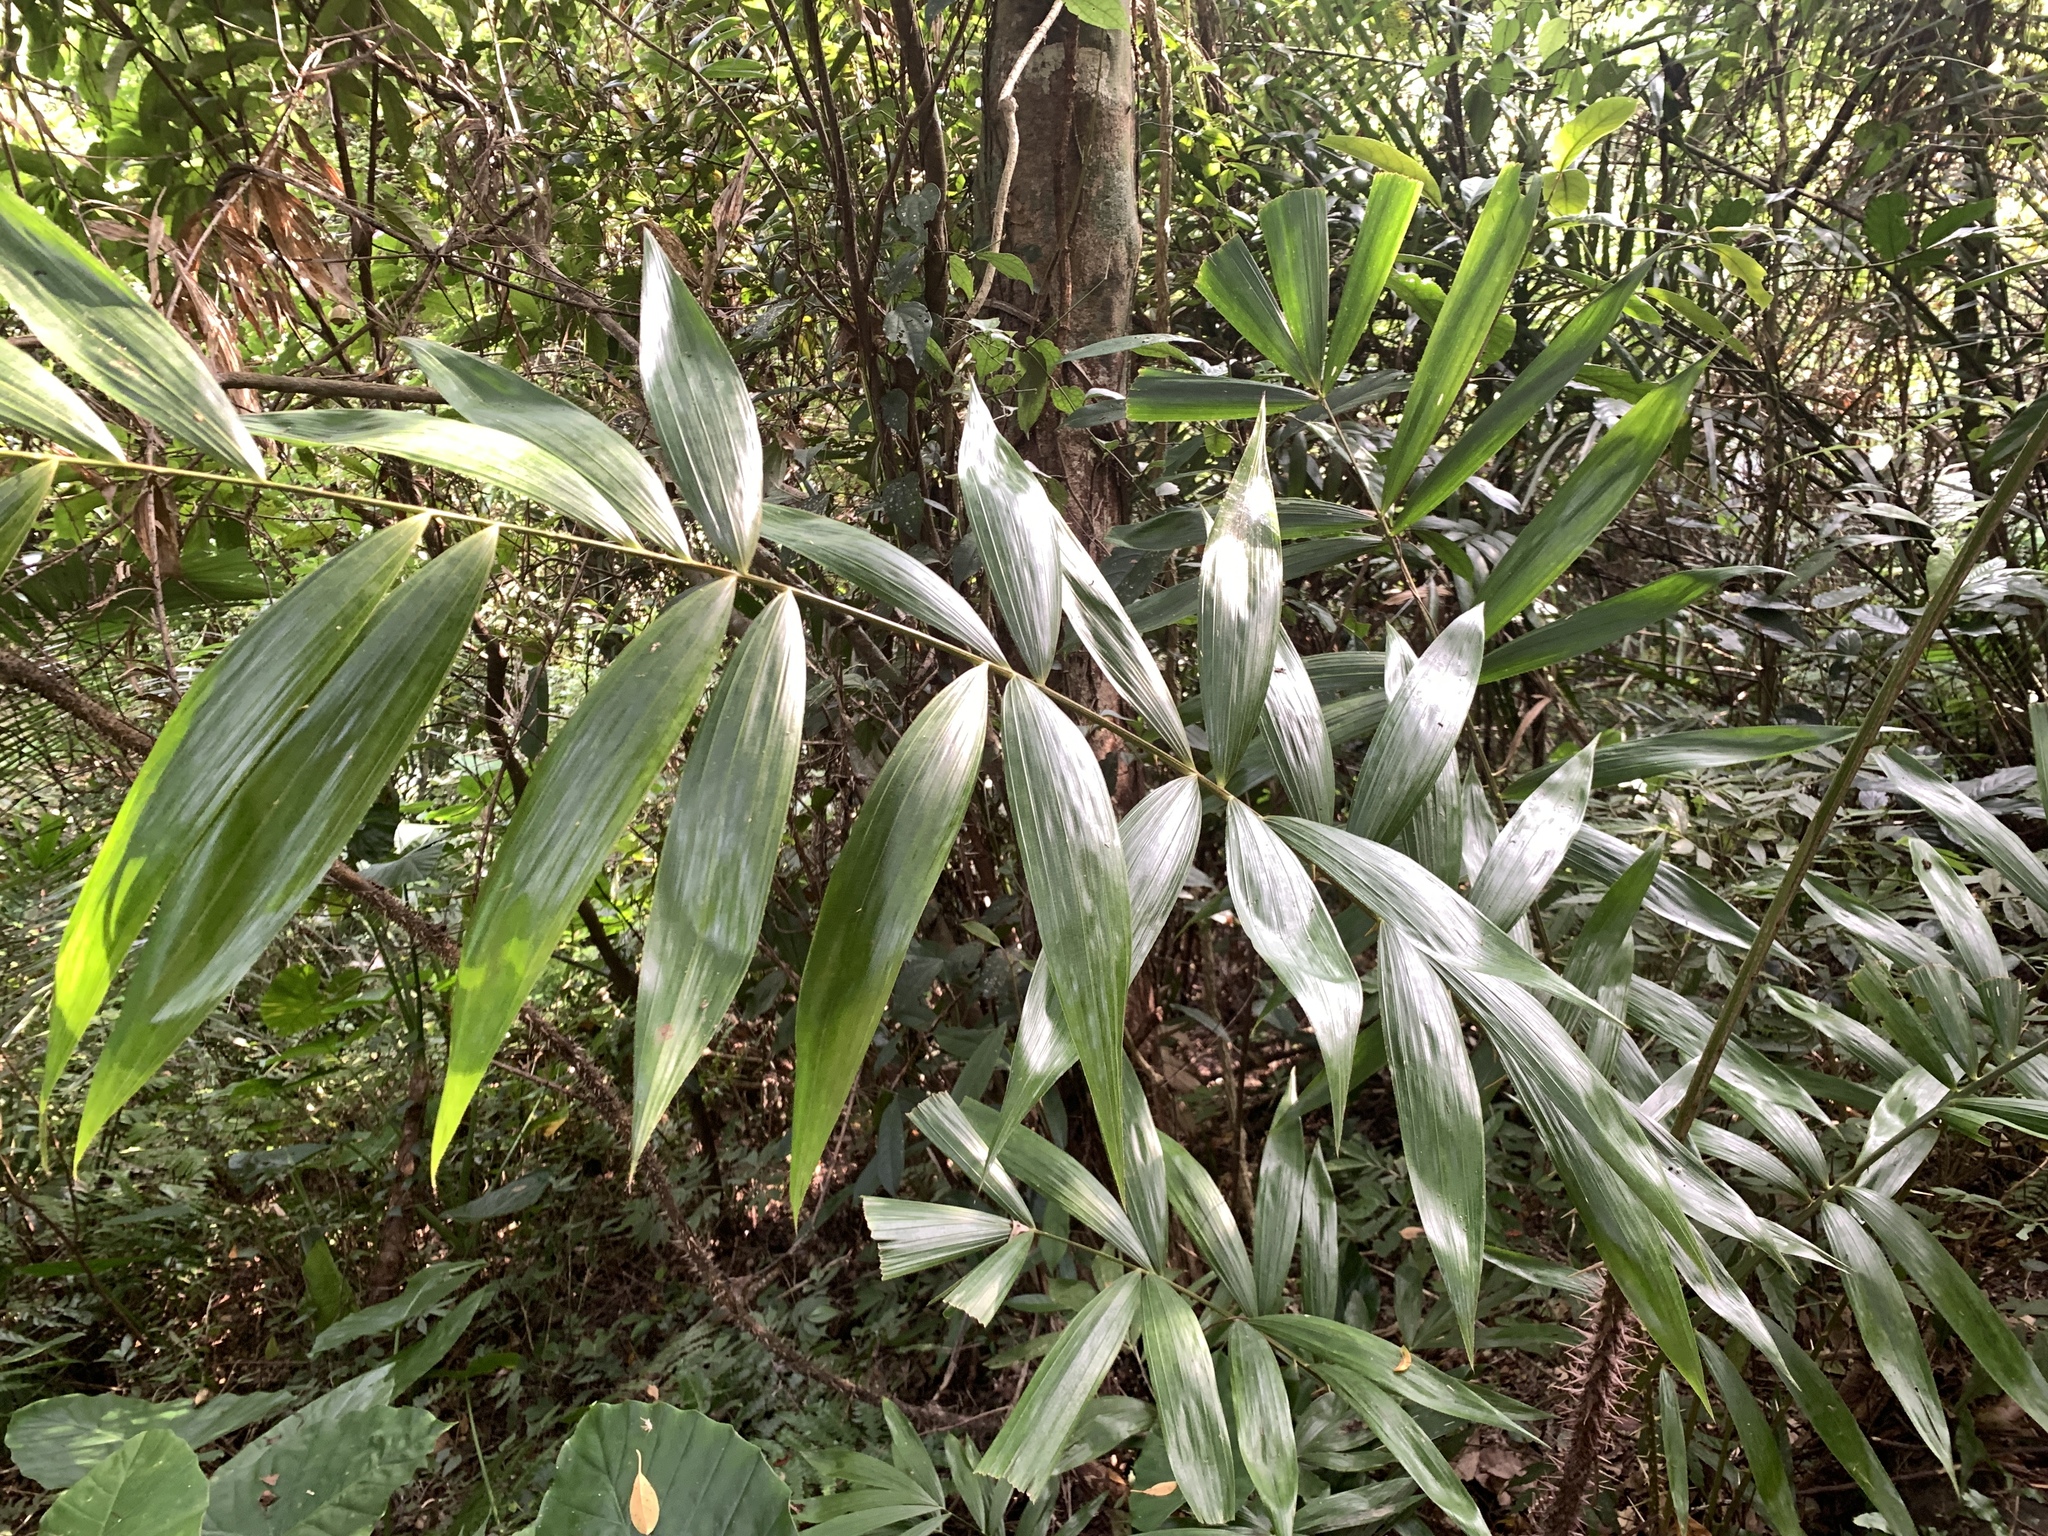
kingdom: Plantae
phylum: Tracheophyta
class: Liliopsida
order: Arecales
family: Arecaceae
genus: Calamus
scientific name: Calamus formosanus
